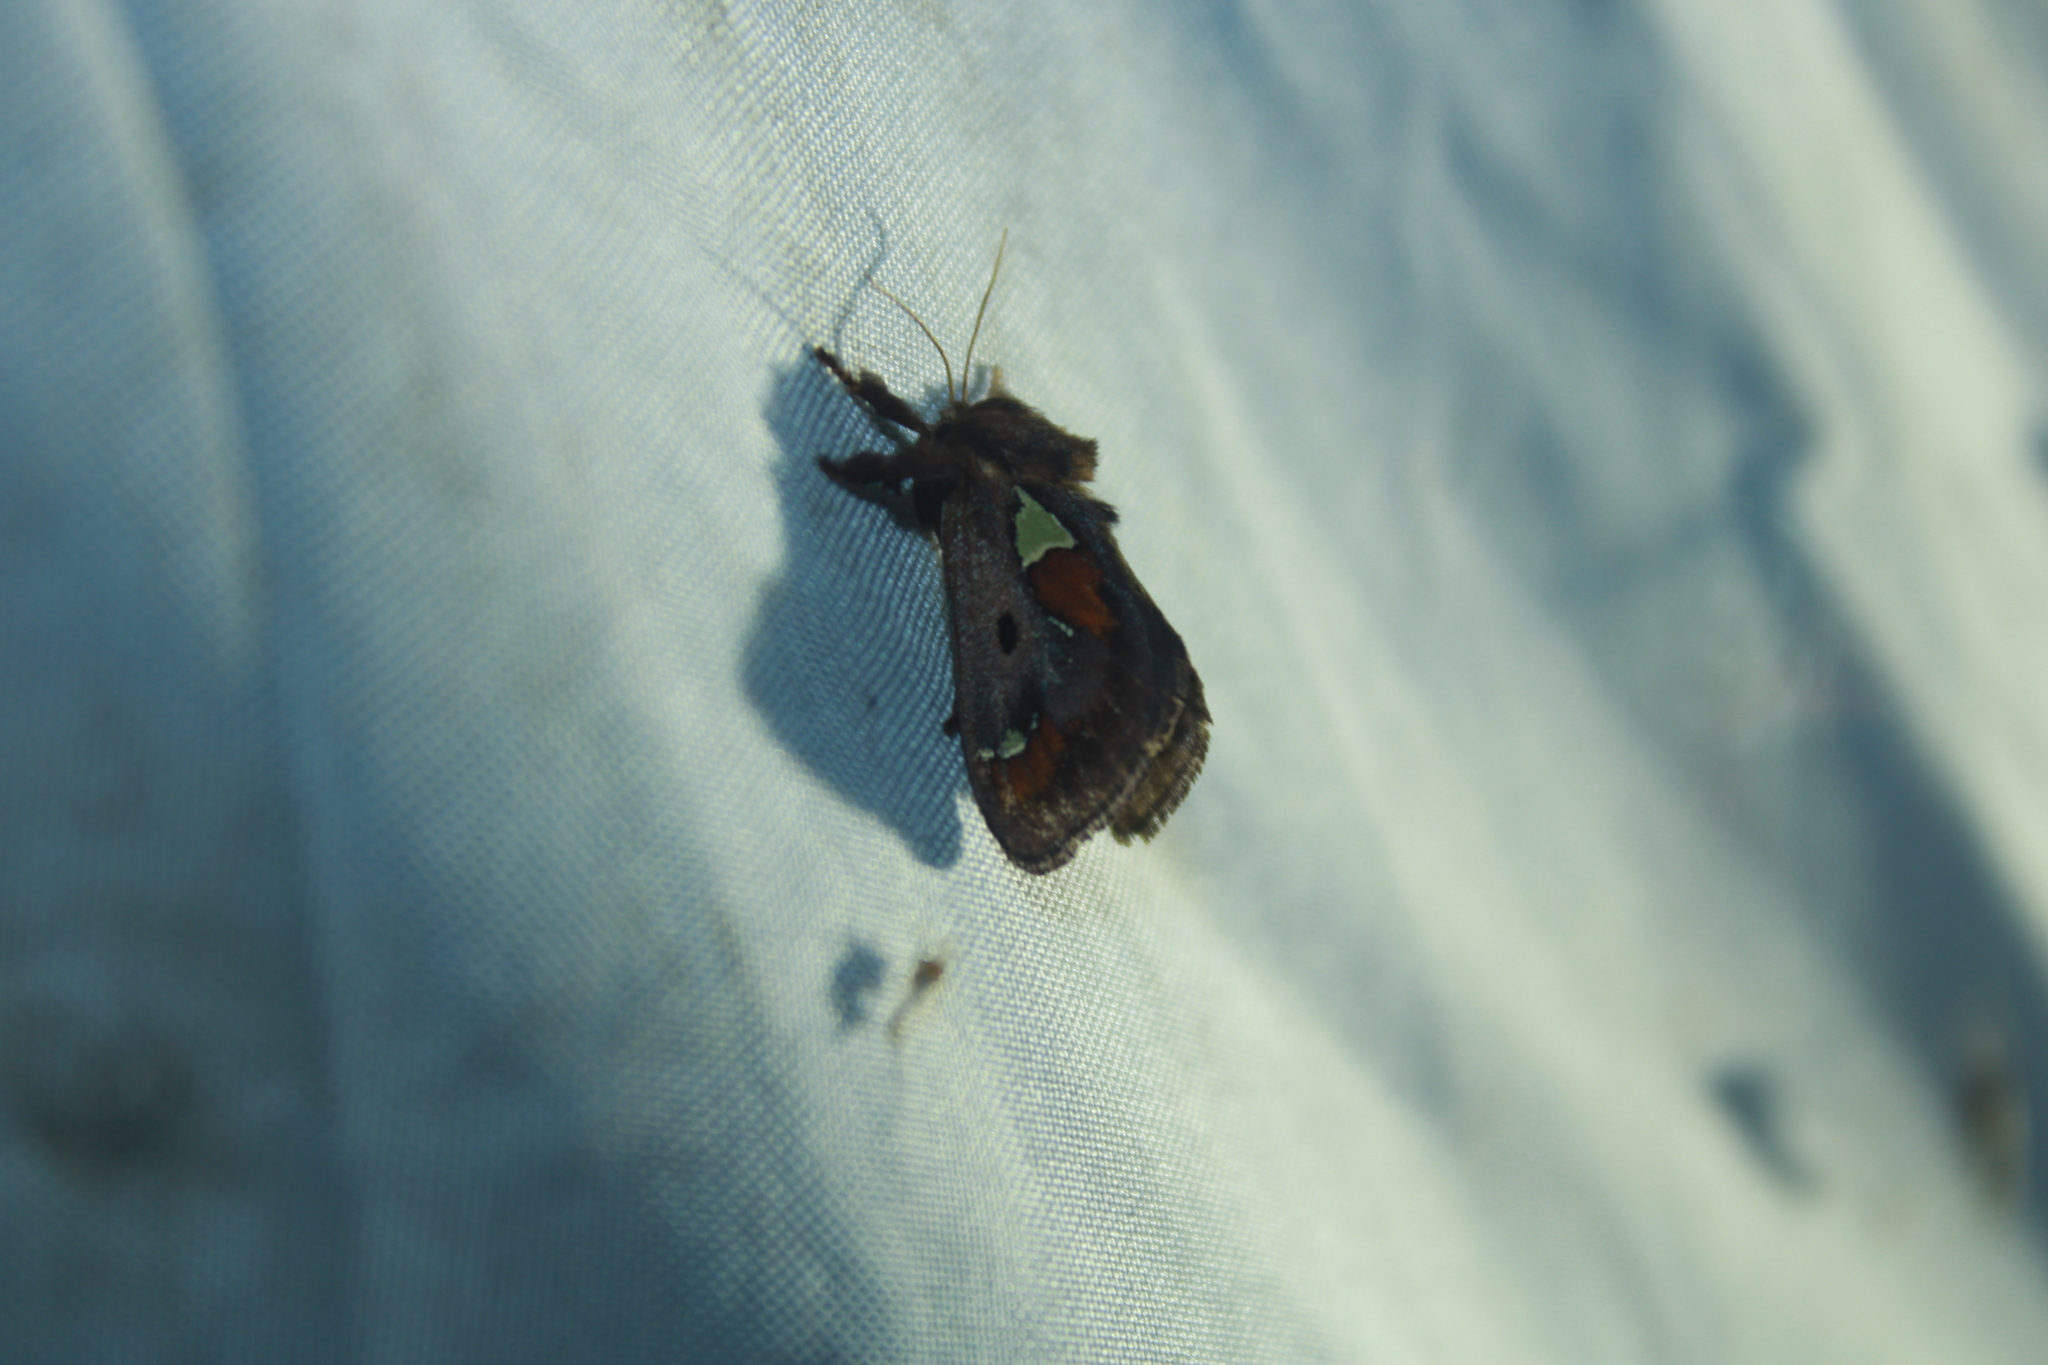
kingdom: Animalia
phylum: Arthropoda
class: Insecta
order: Lepidoptera
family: Limacodidae
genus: Euclea
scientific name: Euclea delphinii
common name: Spiny oak-slug moth
